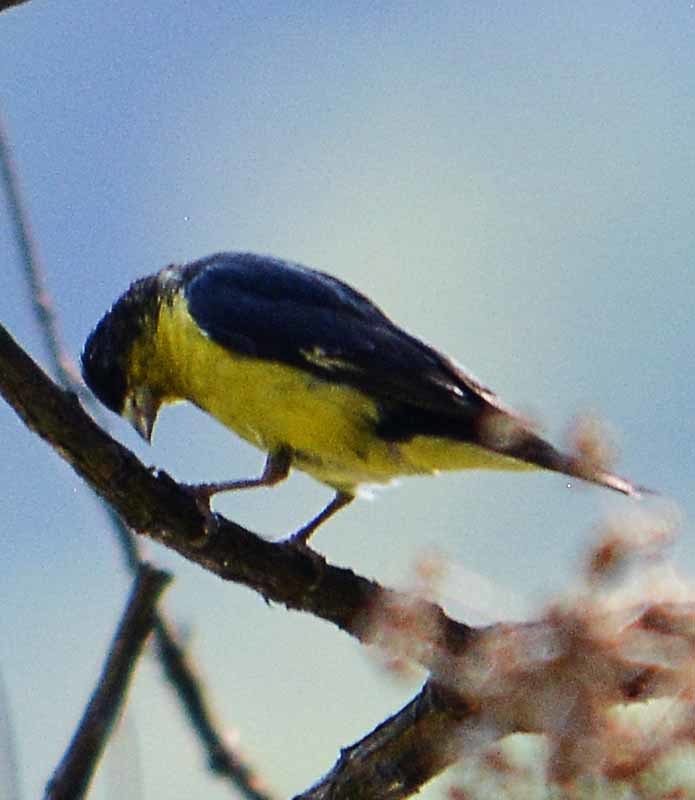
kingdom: Animalia
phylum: Chordata
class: Aves
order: Passeriformes
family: Fringillidae
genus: Spinus
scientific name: Spinus psaltria
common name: Lesser goldfinch
